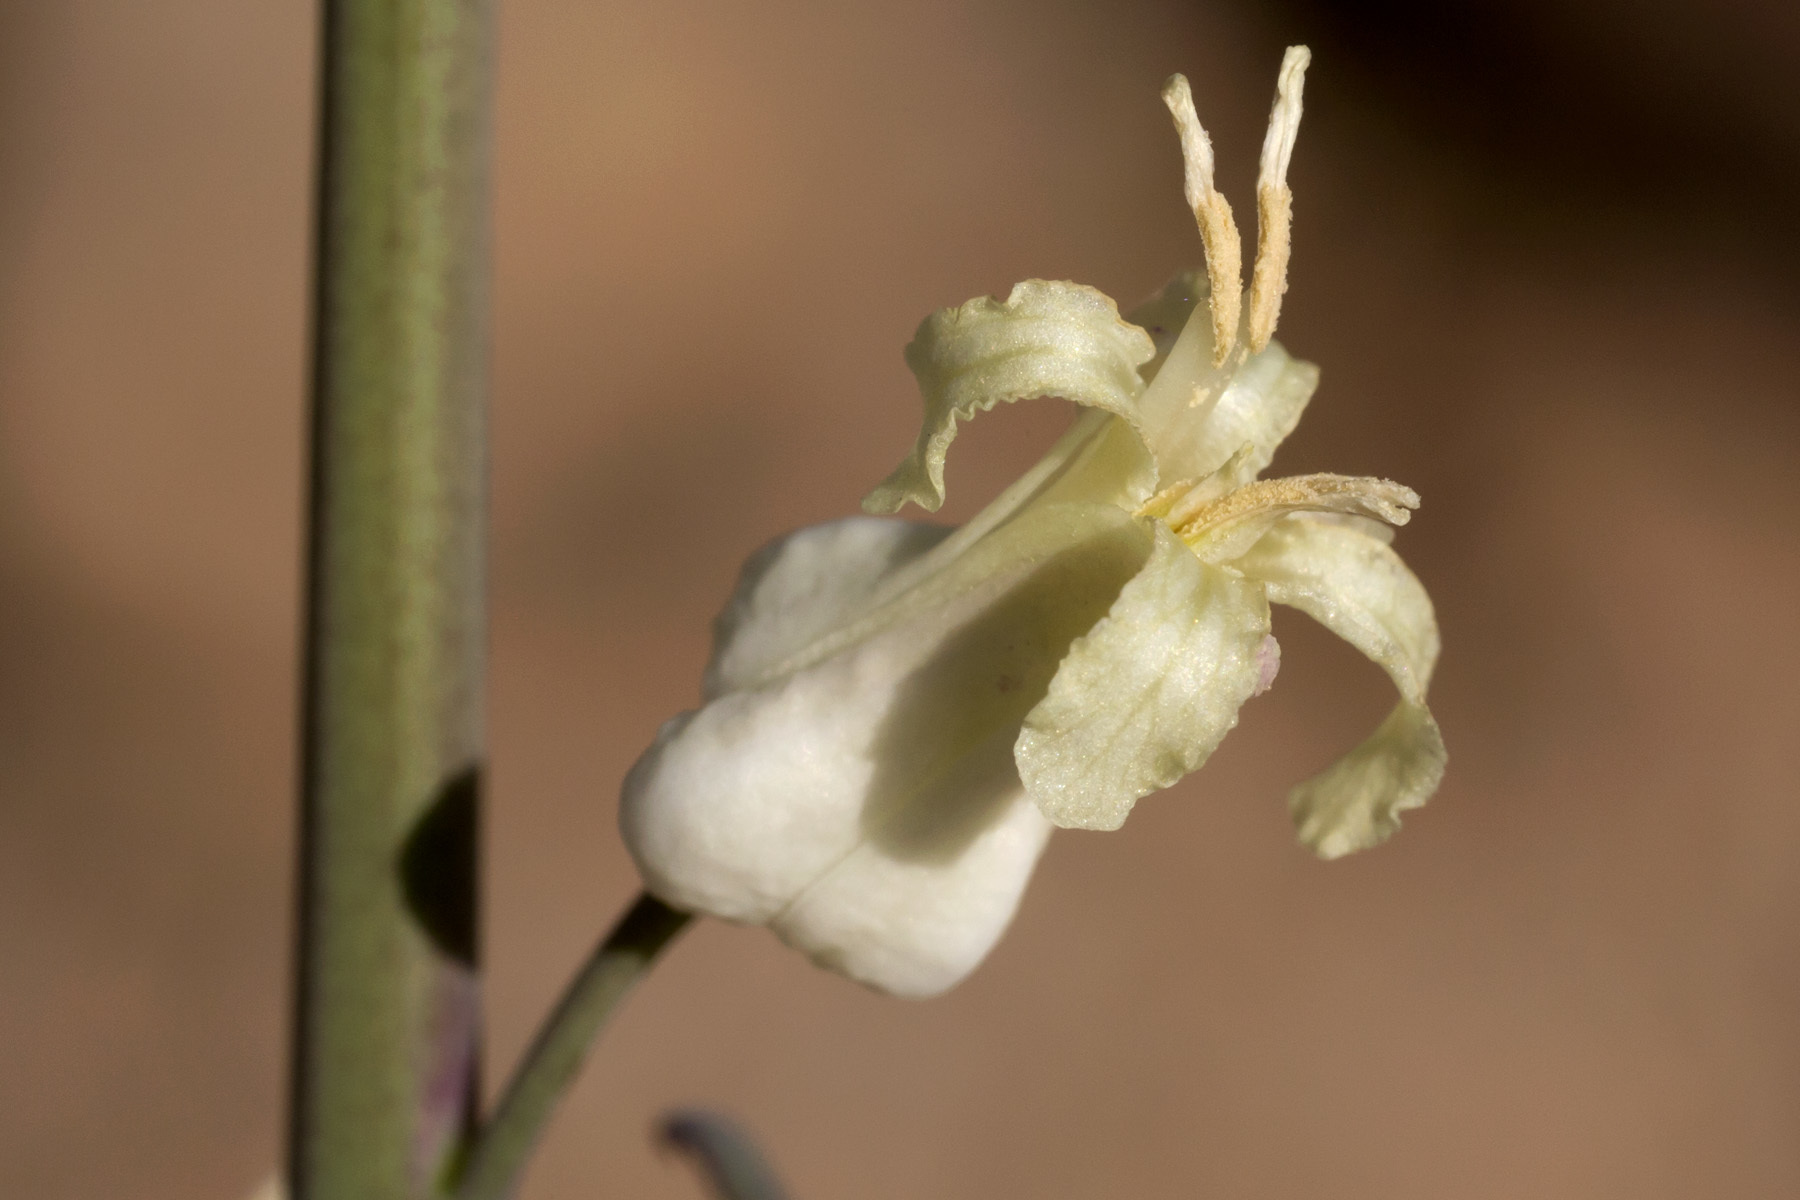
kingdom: Plantae
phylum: Tracheophyta
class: Magnoliopsida
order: Brassicales
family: Brassicaceae
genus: Streptanthus
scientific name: Streptanthus carinatus
